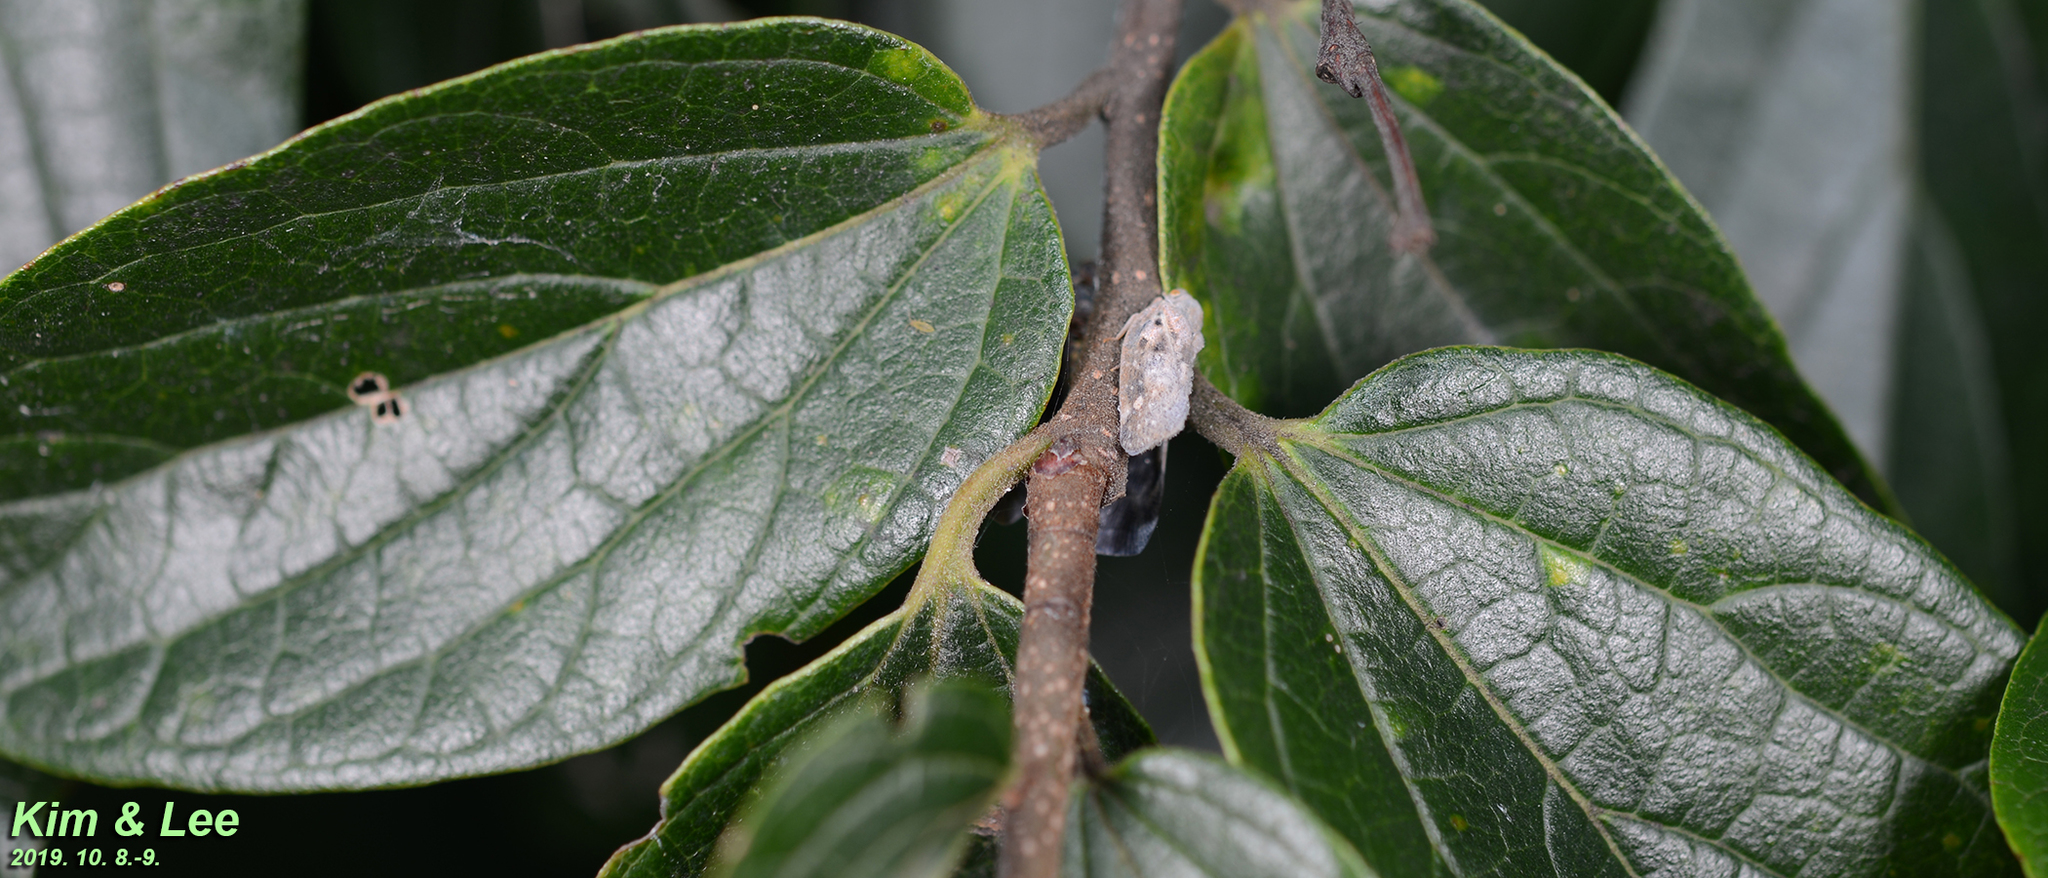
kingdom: Animalia
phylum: Arthropoda
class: Insecta
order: Hemiptera
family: Flatidae
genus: Metcalfa
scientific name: Metcalfa pruinosa
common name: Citrus flatid planthopper
